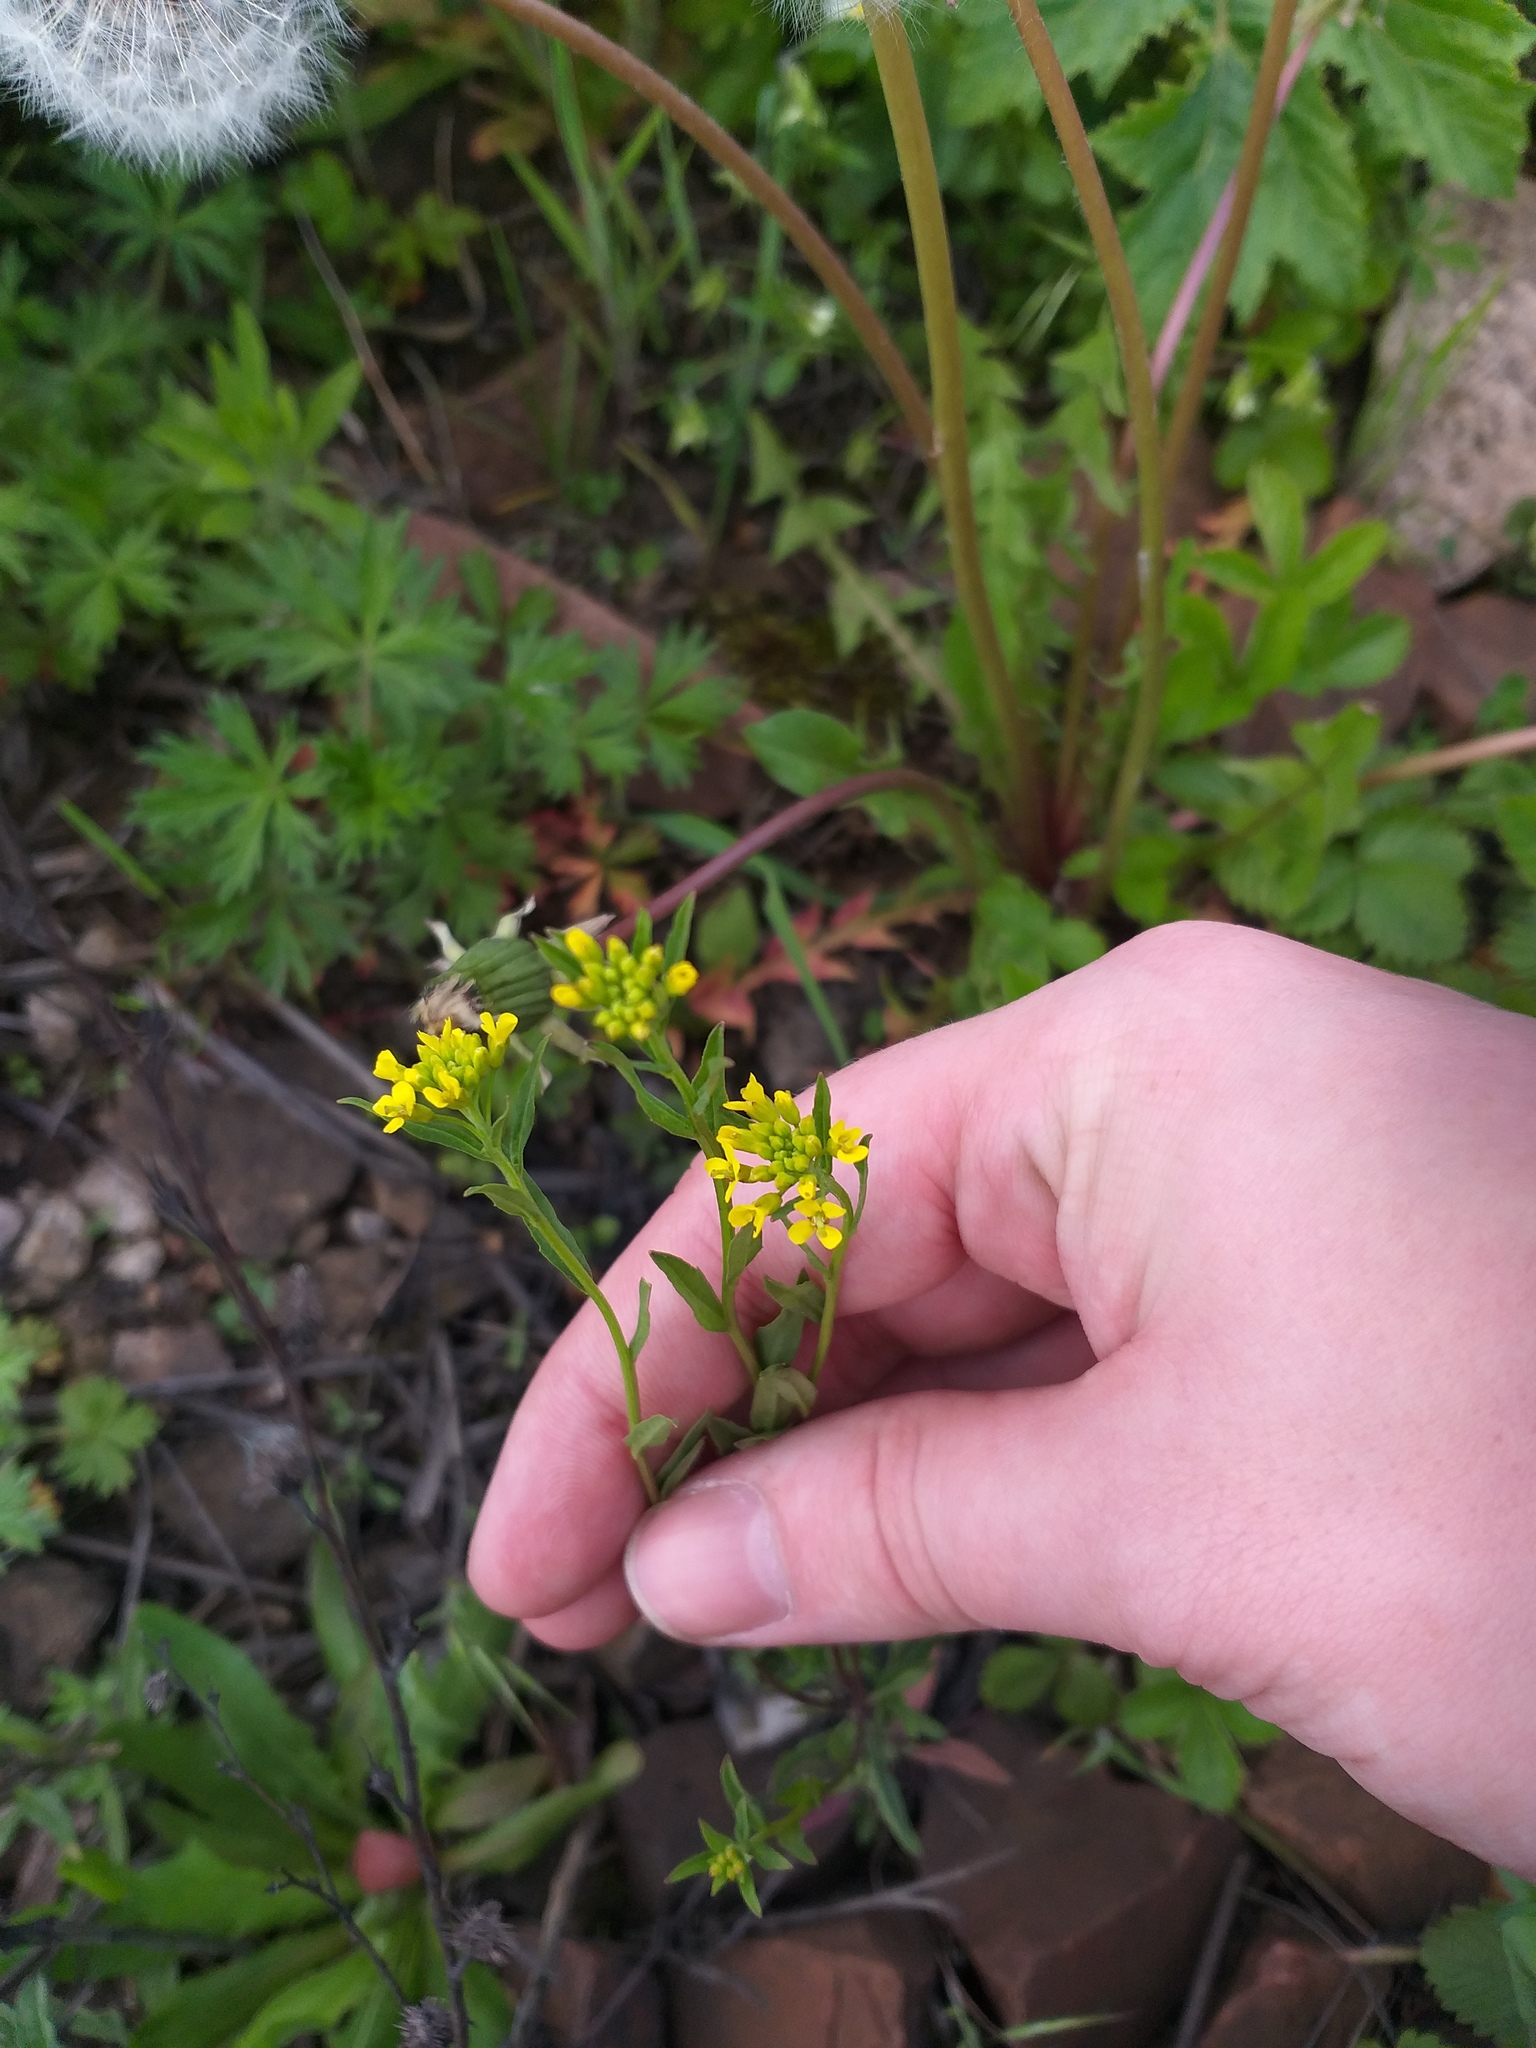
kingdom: Plantae
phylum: Tracheophyta
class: Magnoliopsida
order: Brassicales
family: Brassicaceae
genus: Erysimum
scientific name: Erysimum cheiranthoides
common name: Treacle mustard
